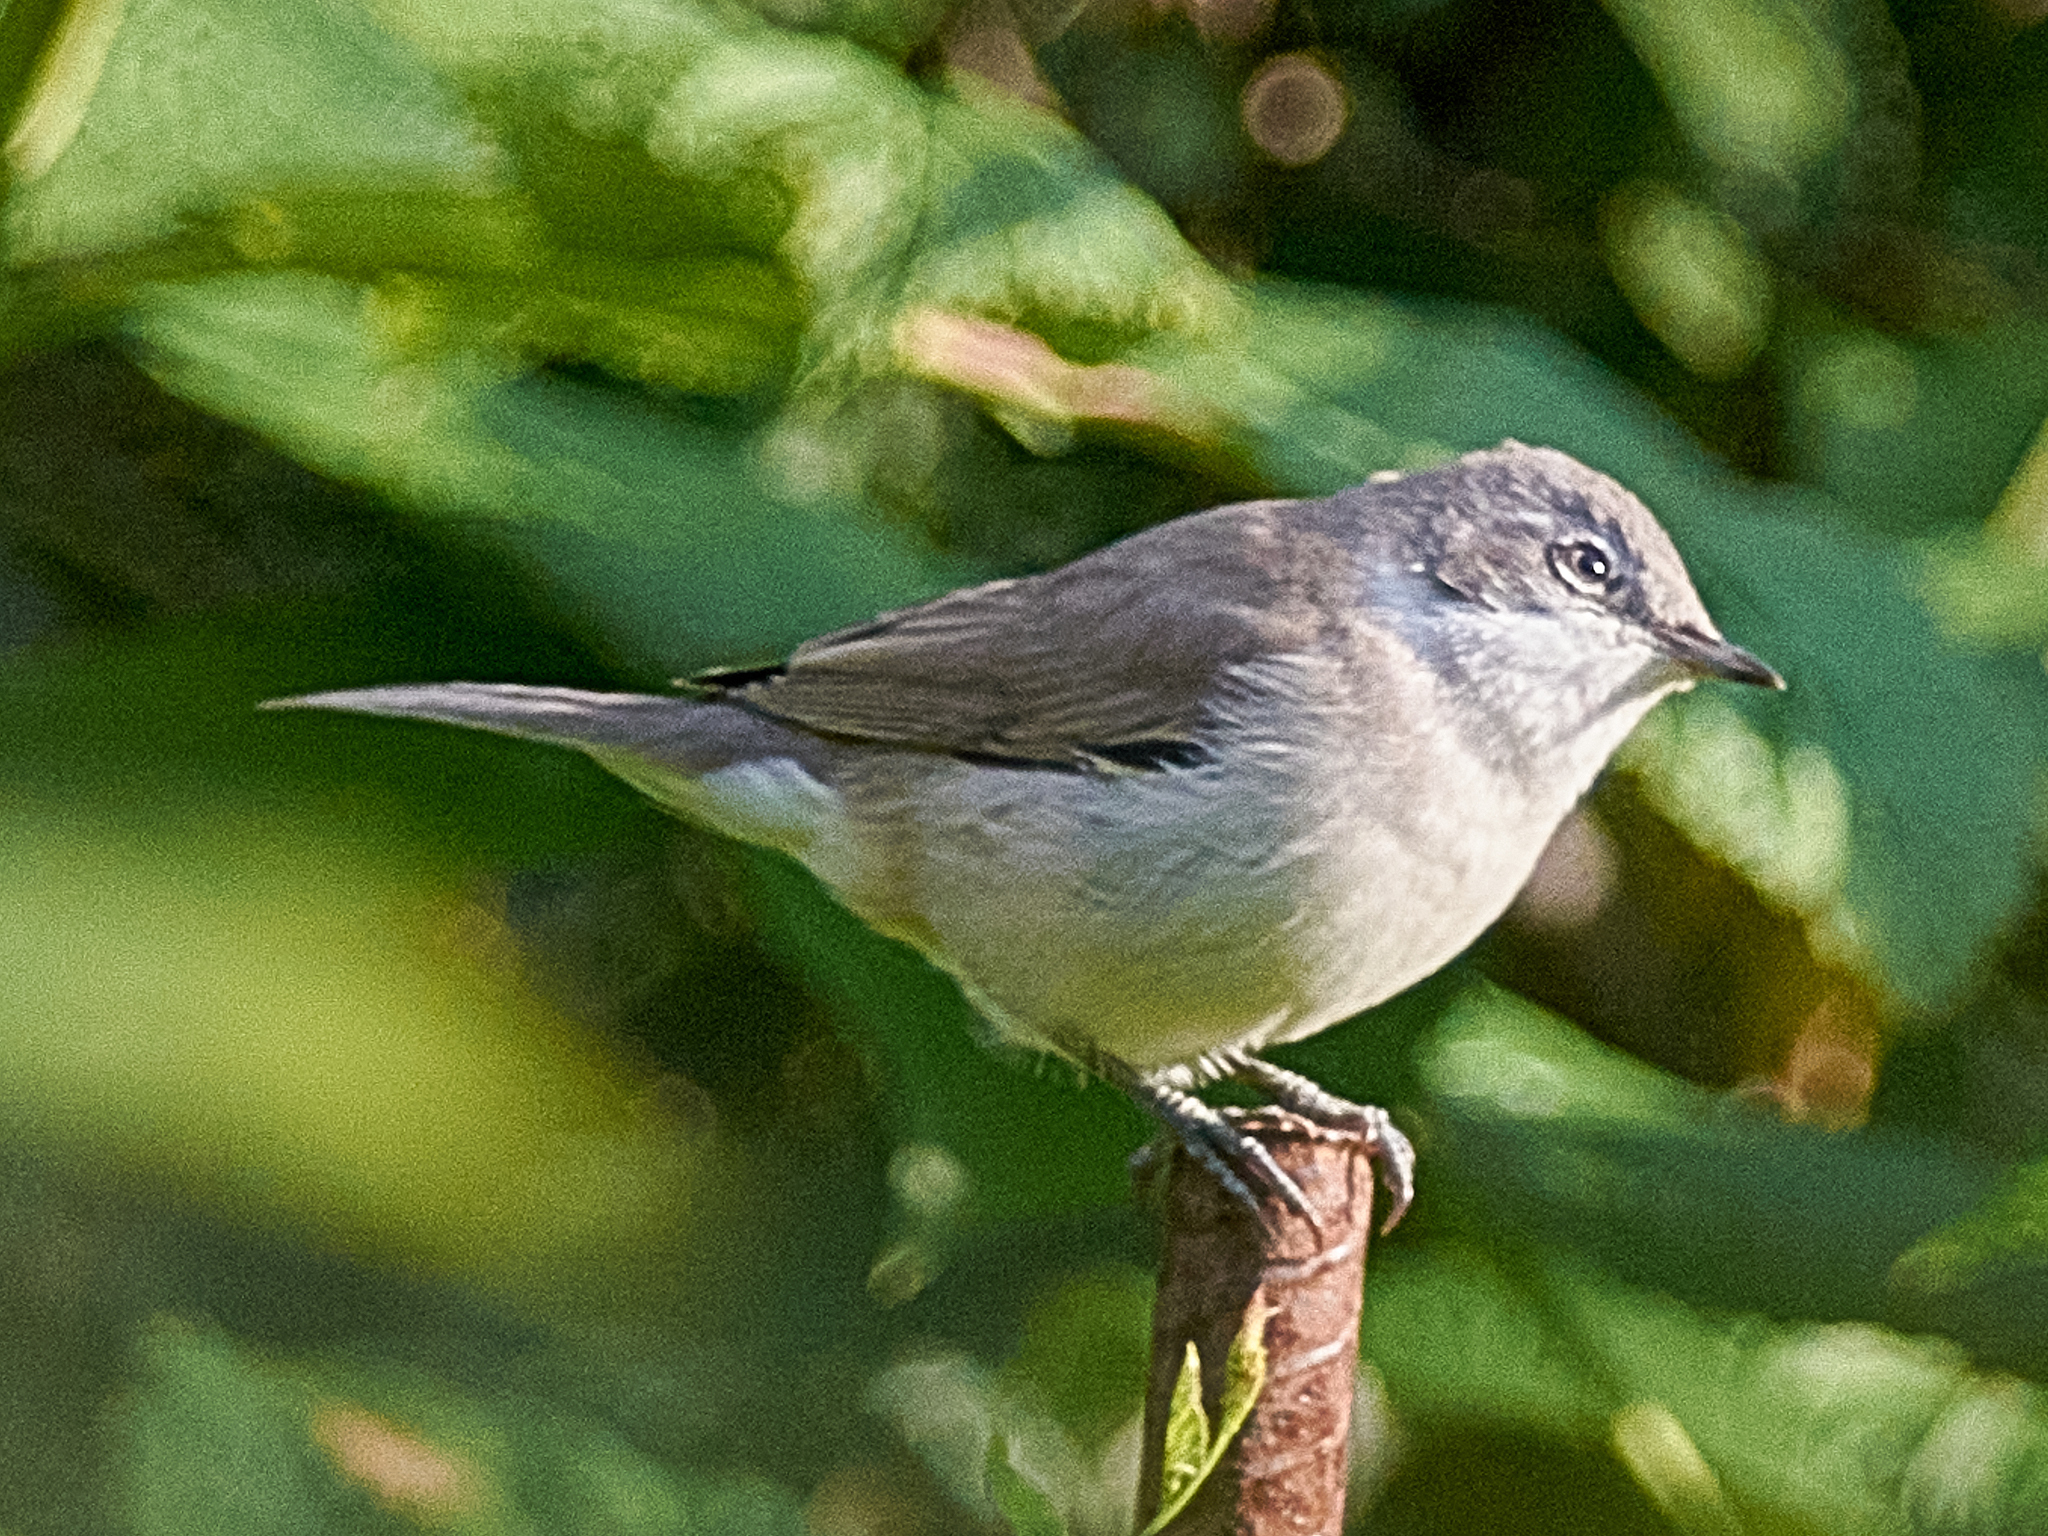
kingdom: Animalia
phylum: Chordata
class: Aves
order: Passeriformes
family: Sylviidae
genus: Sylvia
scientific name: Sylvia curruca
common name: Lesser whitethroat
